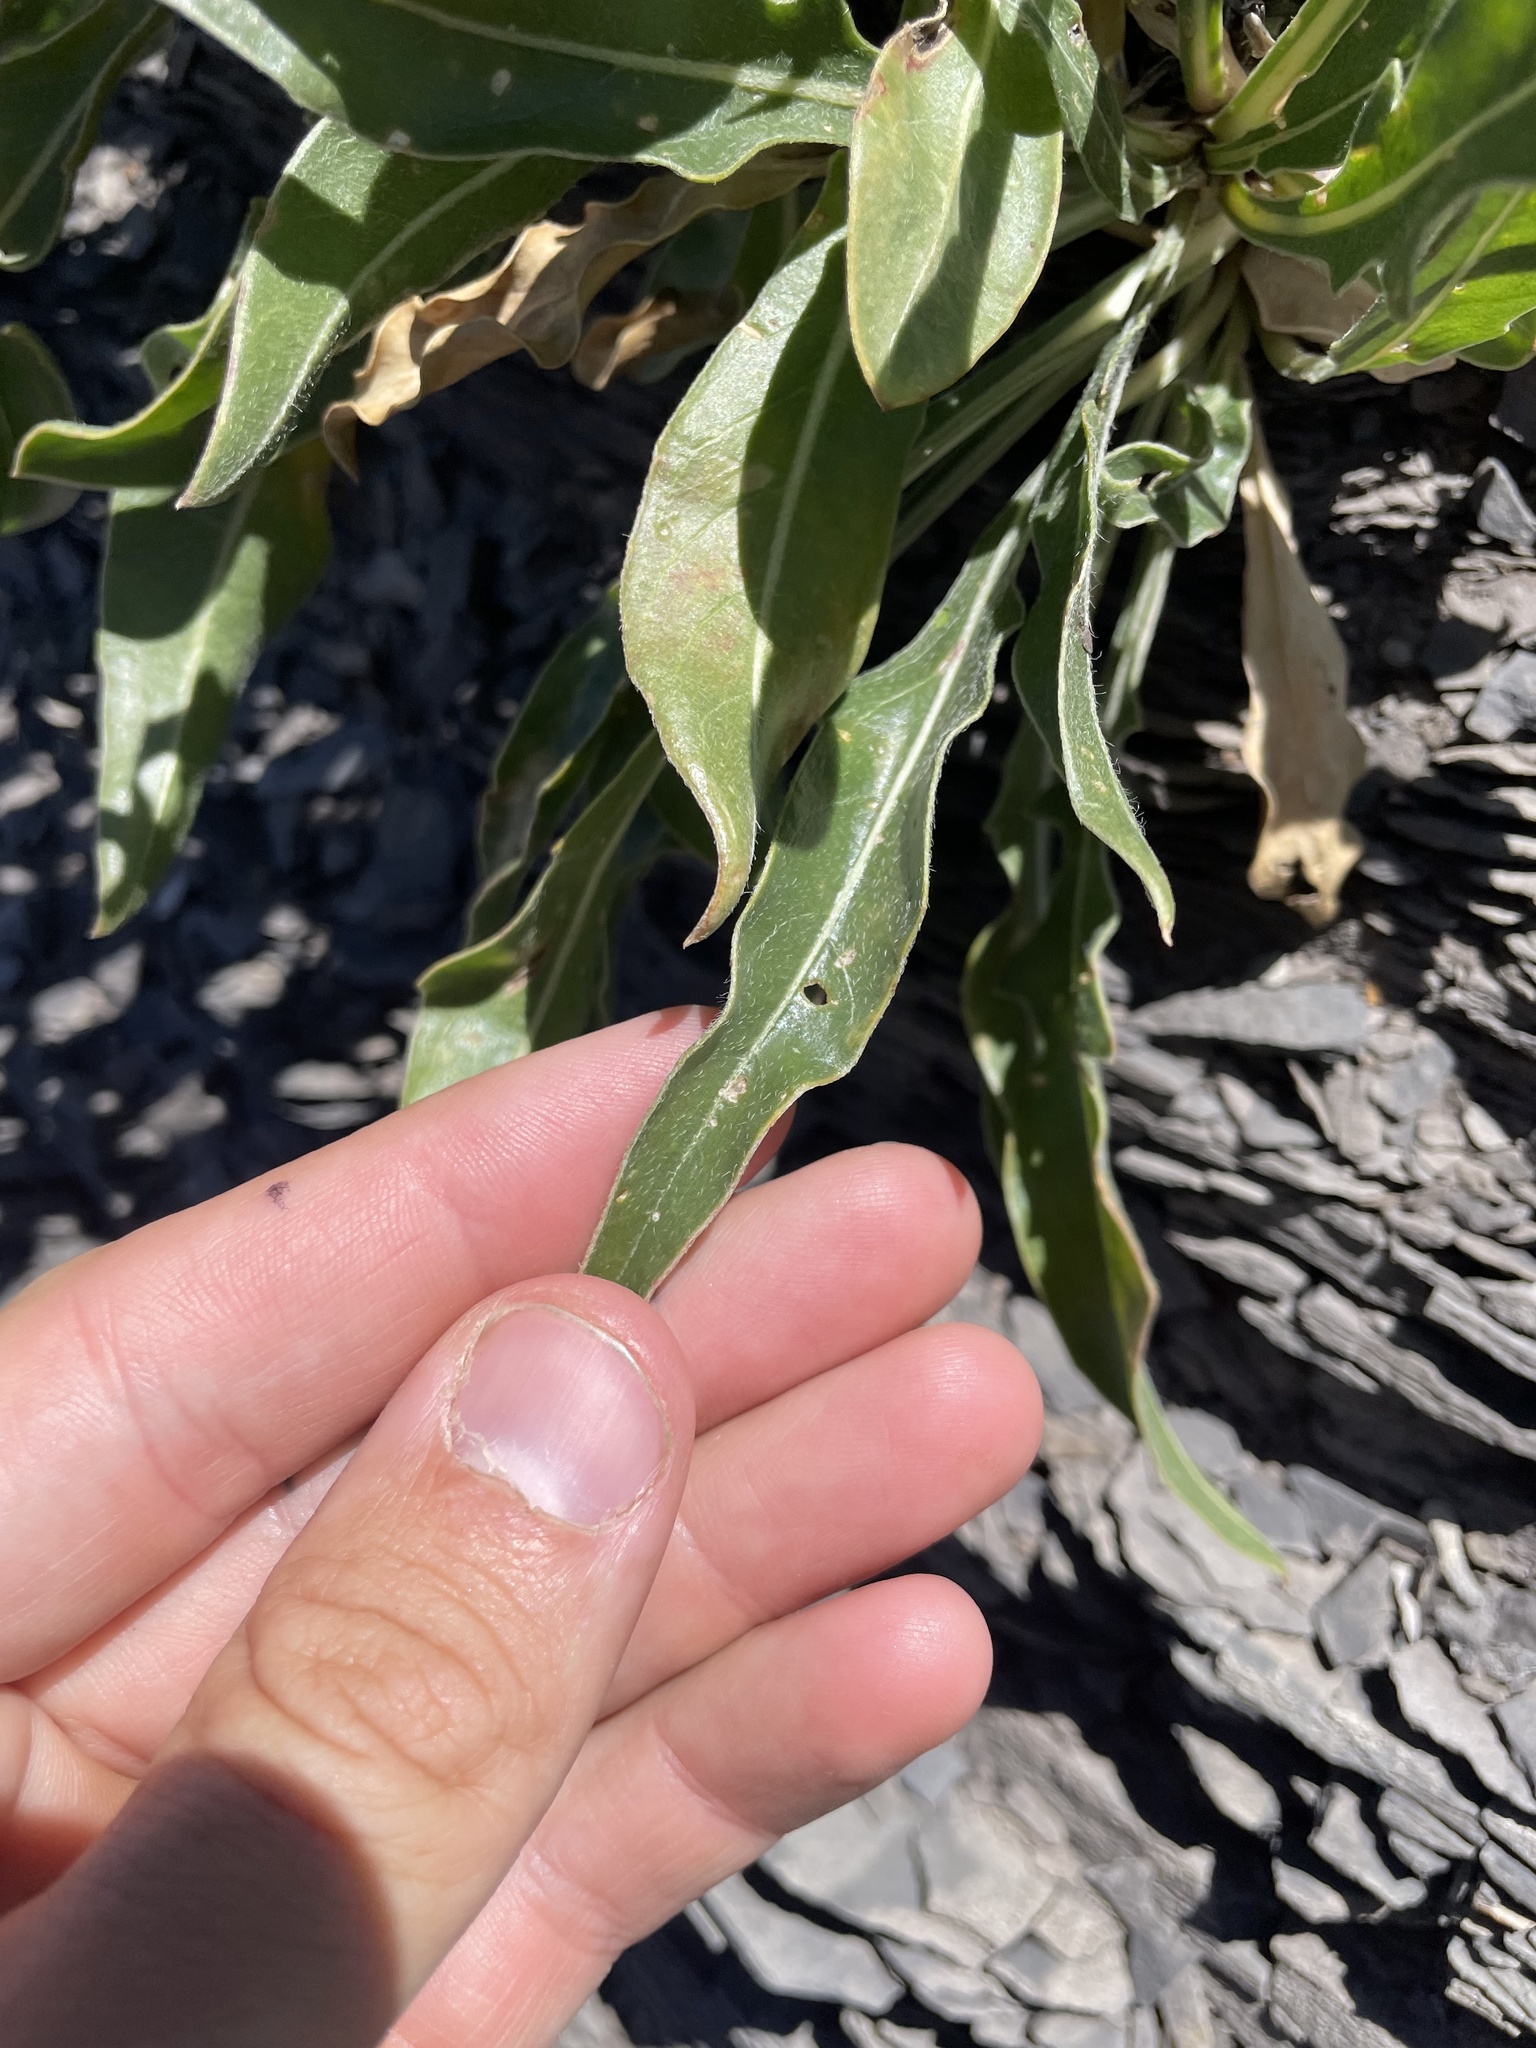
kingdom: Plantae
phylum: Tracheophyta
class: Magnoliopsida
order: Myrtales
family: Onagraceae
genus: Oenothera
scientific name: Oenothera howardii
